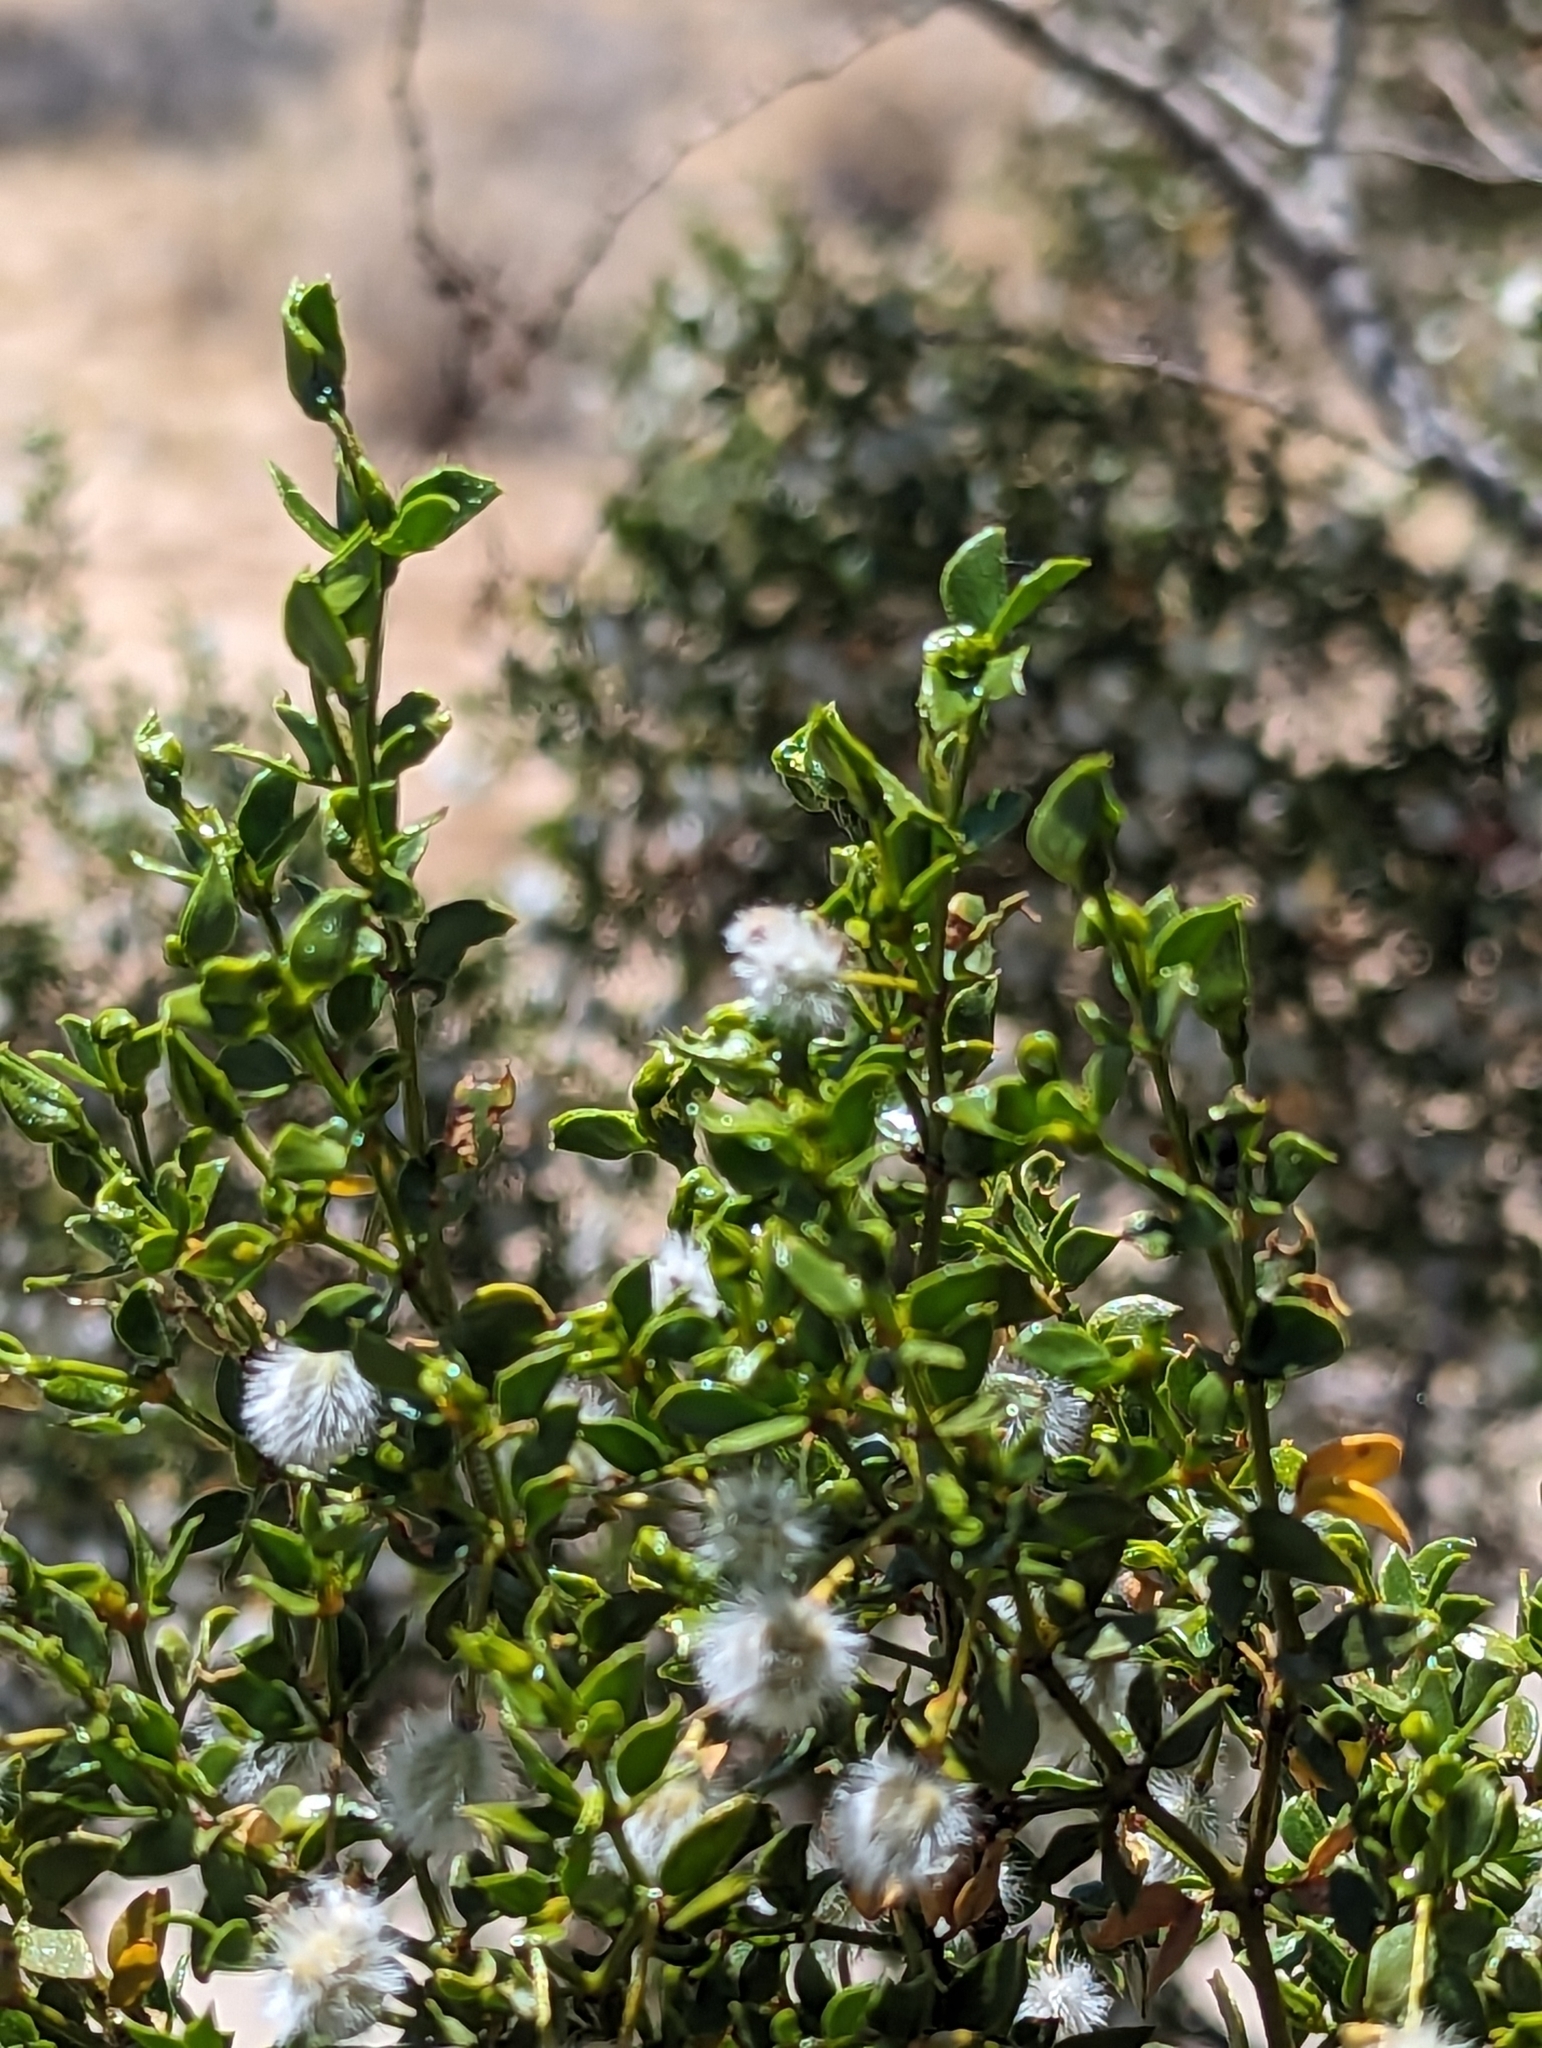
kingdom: Plantae
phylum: Tracheophyta
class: Magnoliopsida
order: Zygophyllales
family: Zygophyllaceae
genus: Larrea
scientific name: Larrea tridentata
